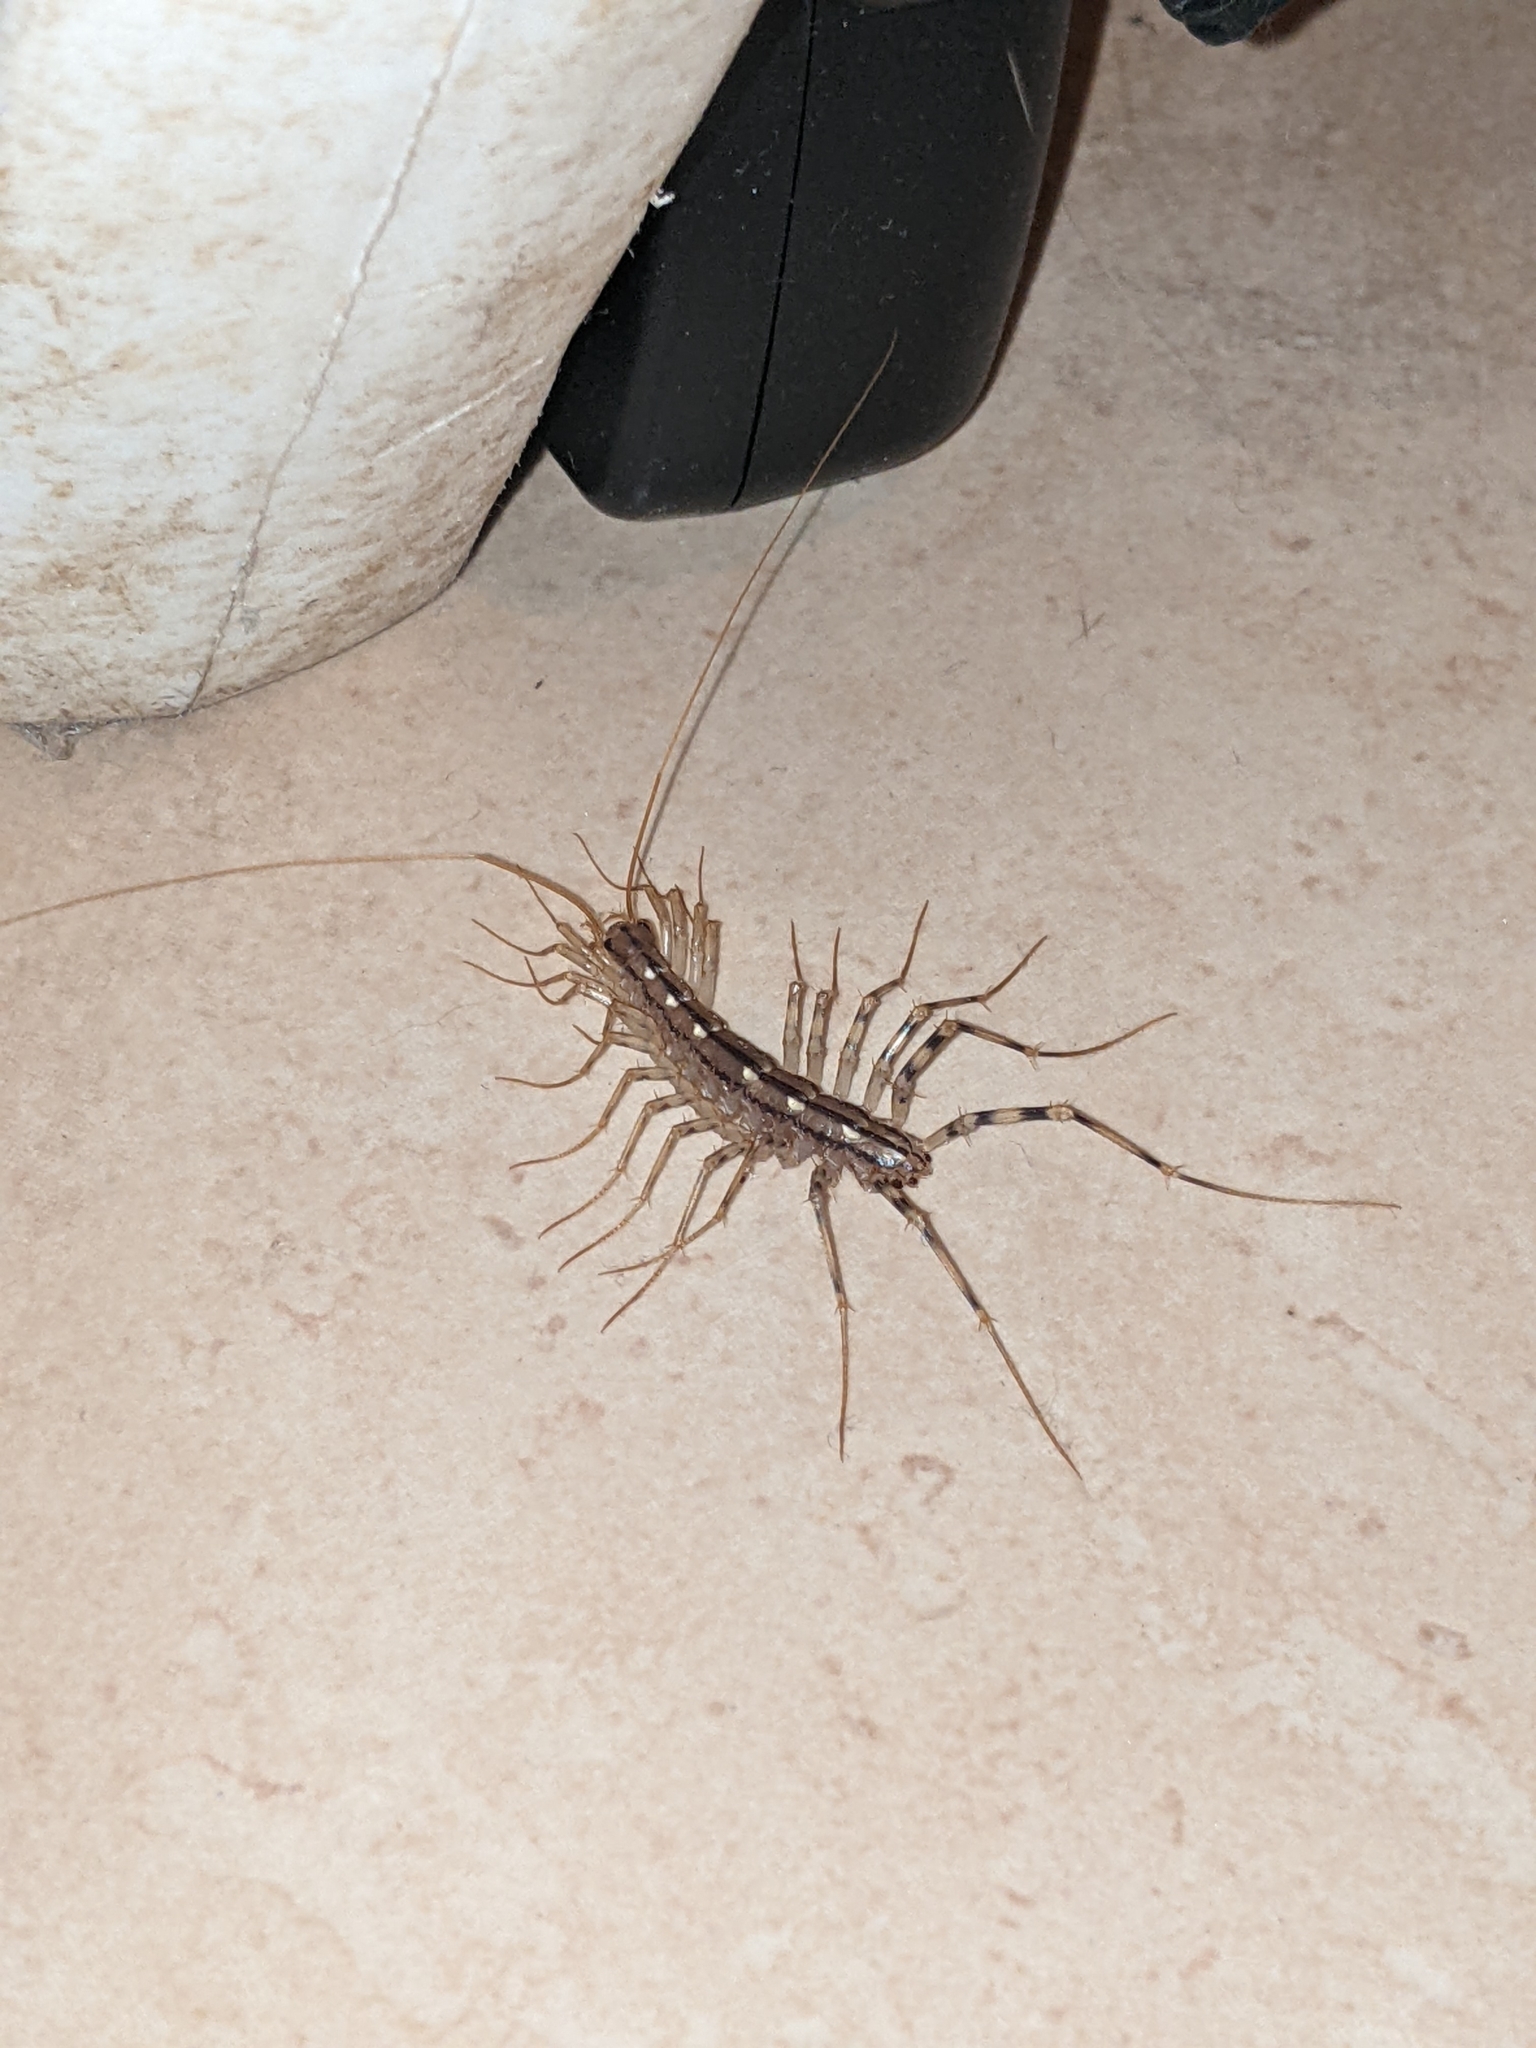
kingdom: Animalia
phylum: Arthropoda
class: Chilopoda
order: Scutigeromorpha
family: Scutigeridae
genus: Scutigera
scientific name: Scutigera coleoptrata
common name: House centipede
